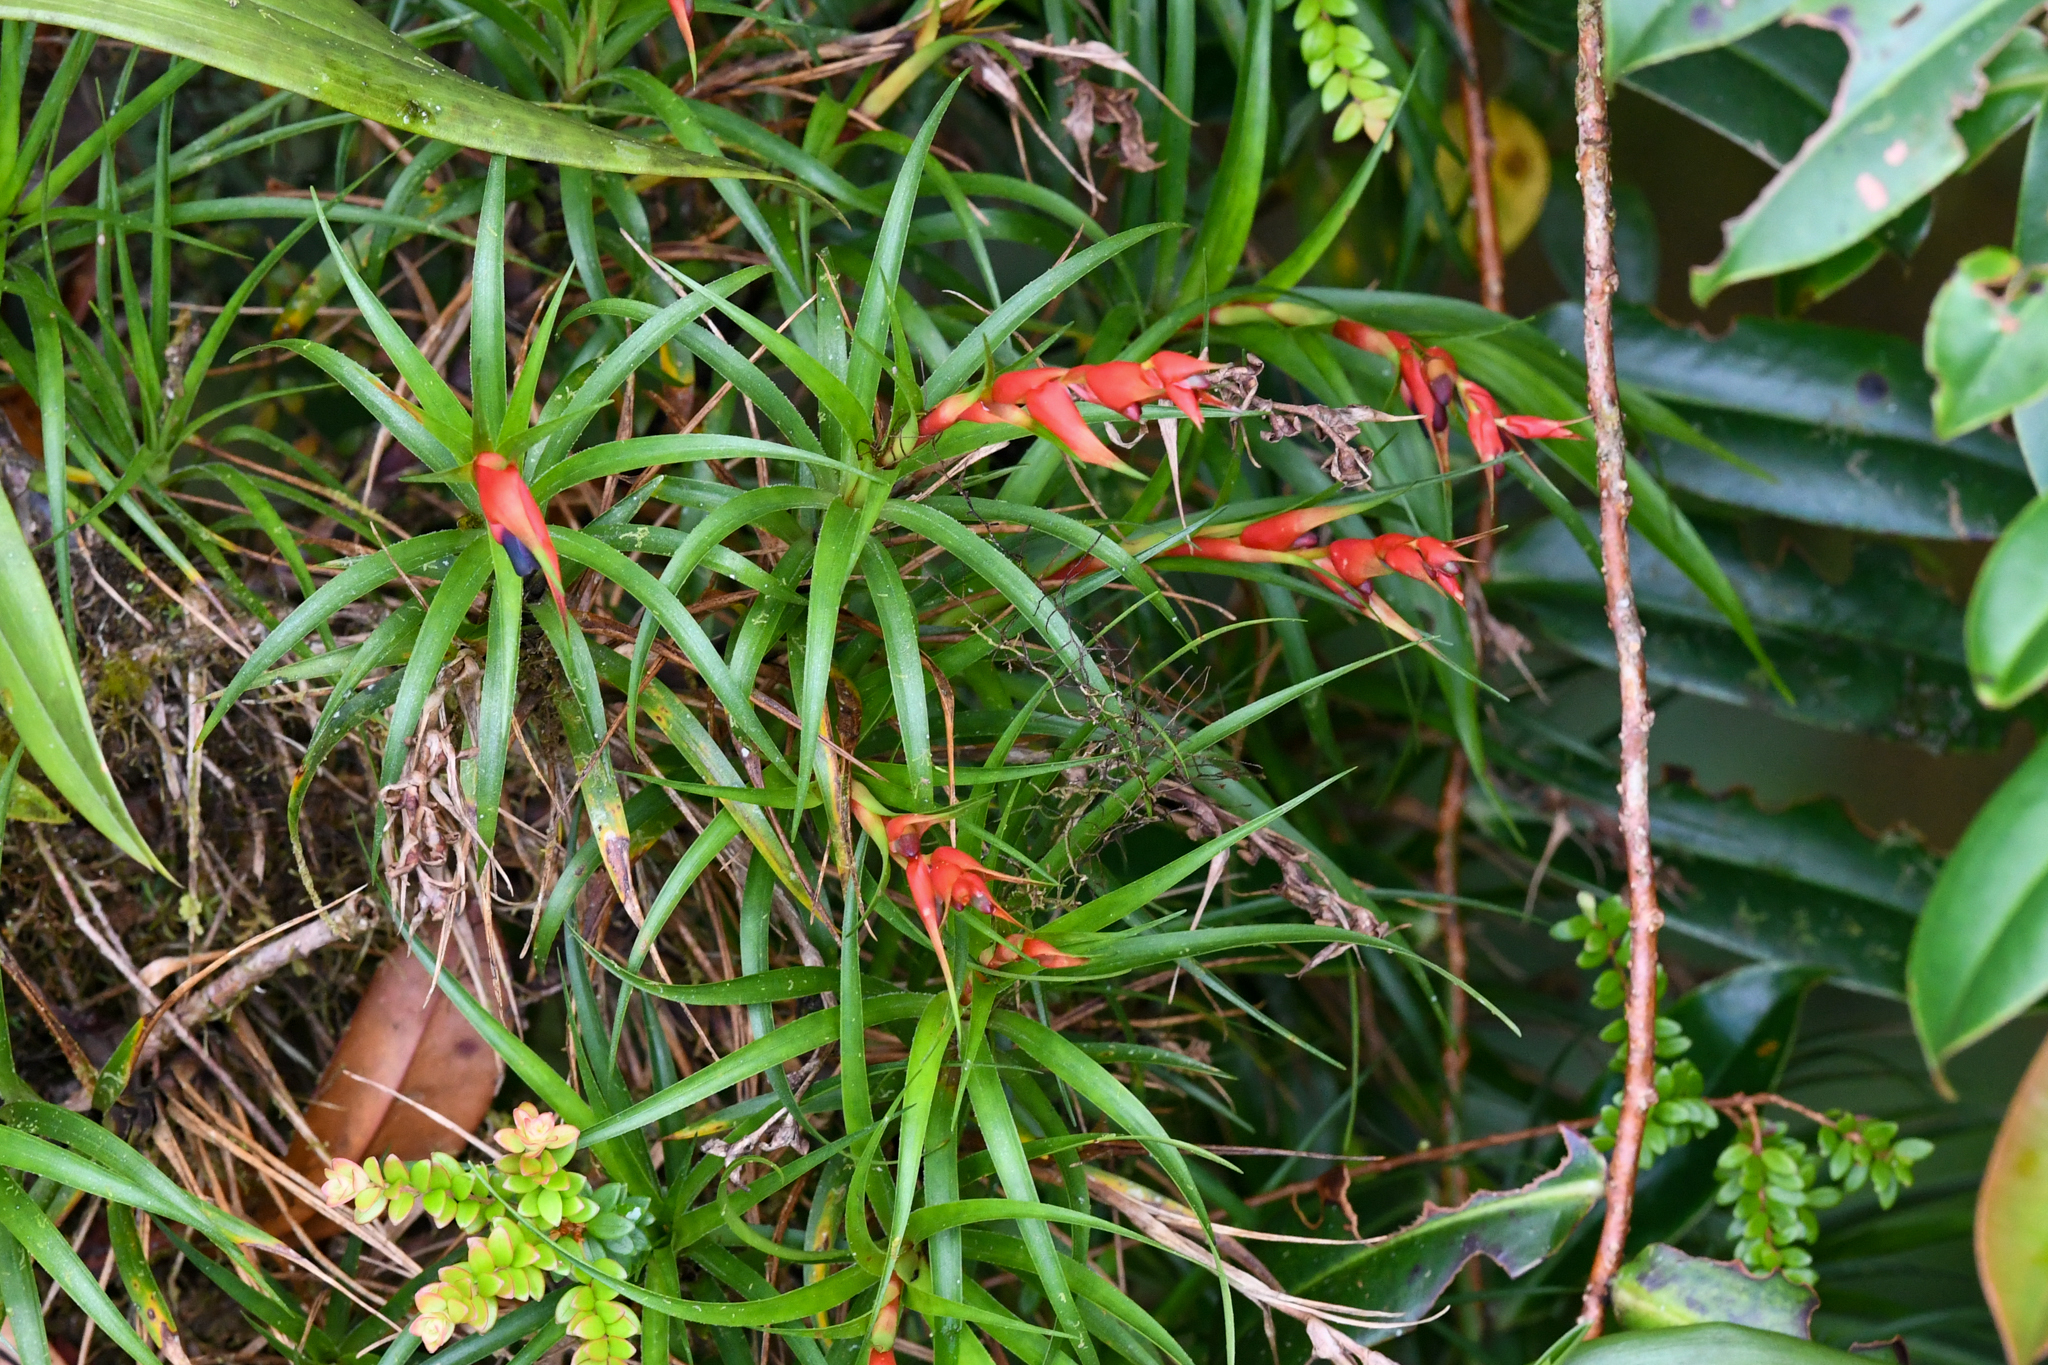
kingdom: Plantae
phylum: Tracheophyta
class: Liliopsida
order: Poales
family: Bromeliaceae
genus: Werauhia
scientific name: Werauhia insignis
